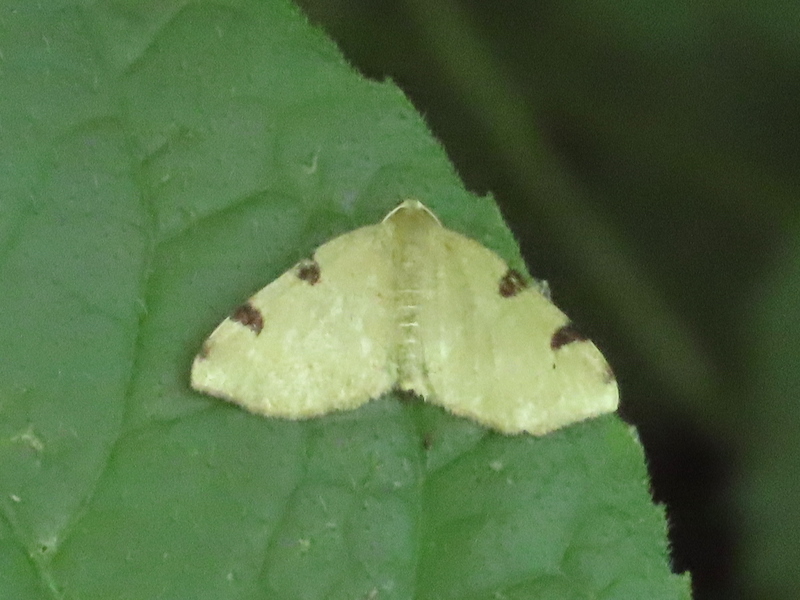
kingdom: Animalia
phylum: Arthropoda
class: Insecta
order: Lepidoptera
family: Geometridae
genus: Heterophleps
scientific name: Heterophleps triguttaria
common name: Three-spotted fillip
